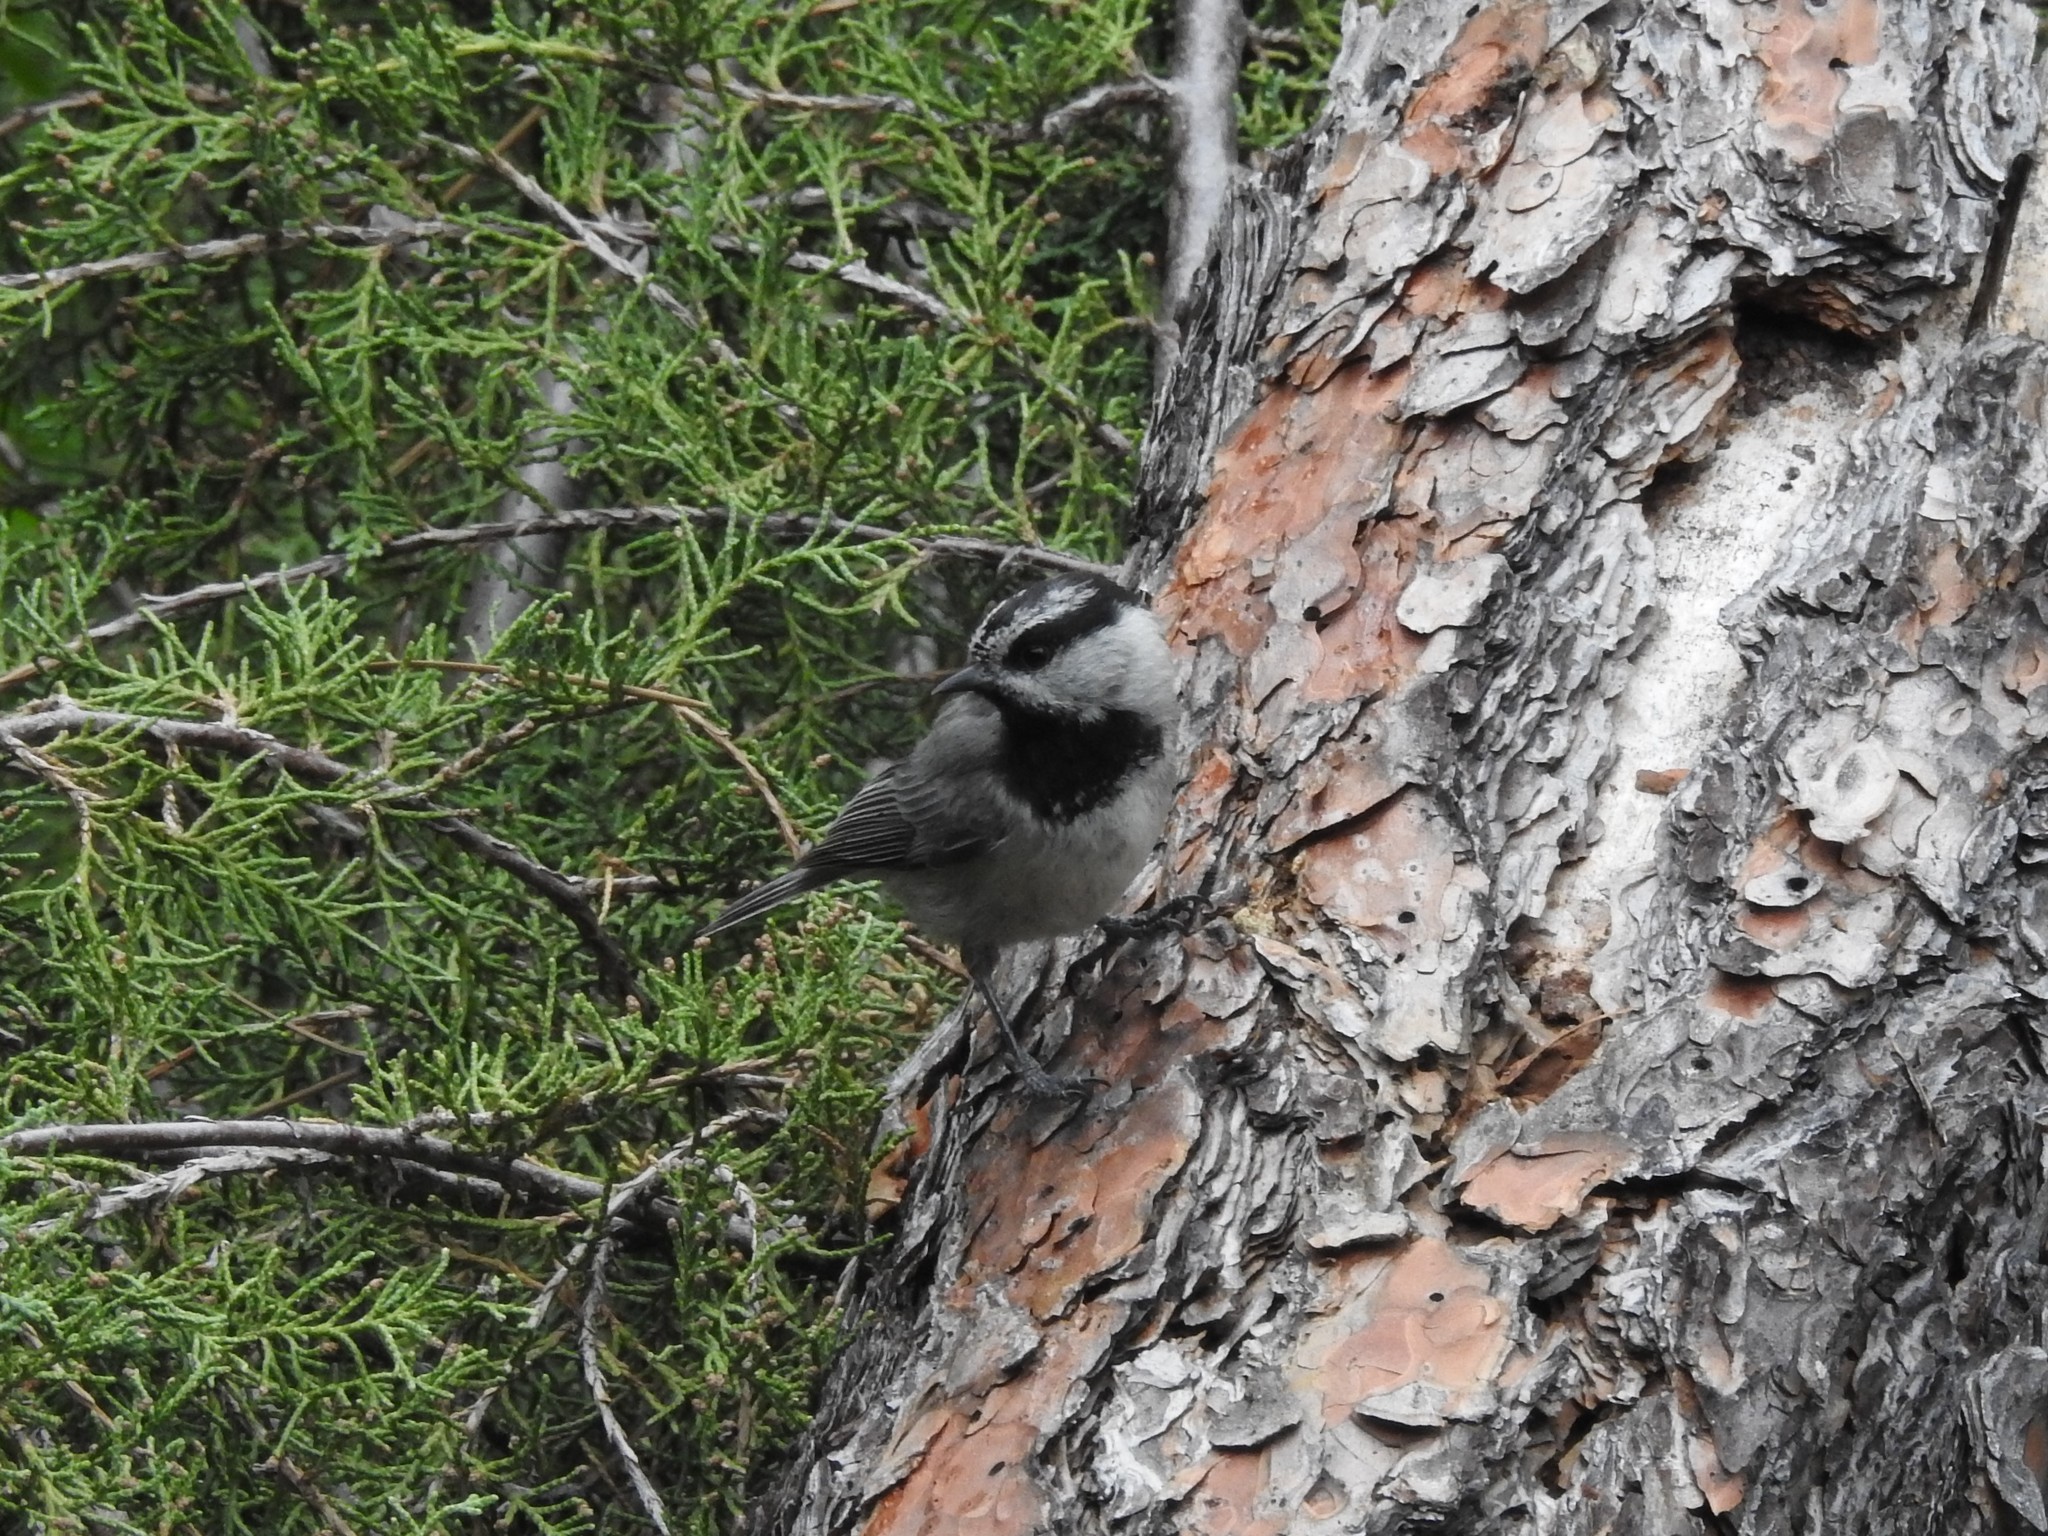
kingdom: Animalia
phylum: Chordata
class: Aves
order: Passeriformes
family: Paridae
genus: Poecile
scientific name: Poecile gambeli
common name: Mountain chickadee
